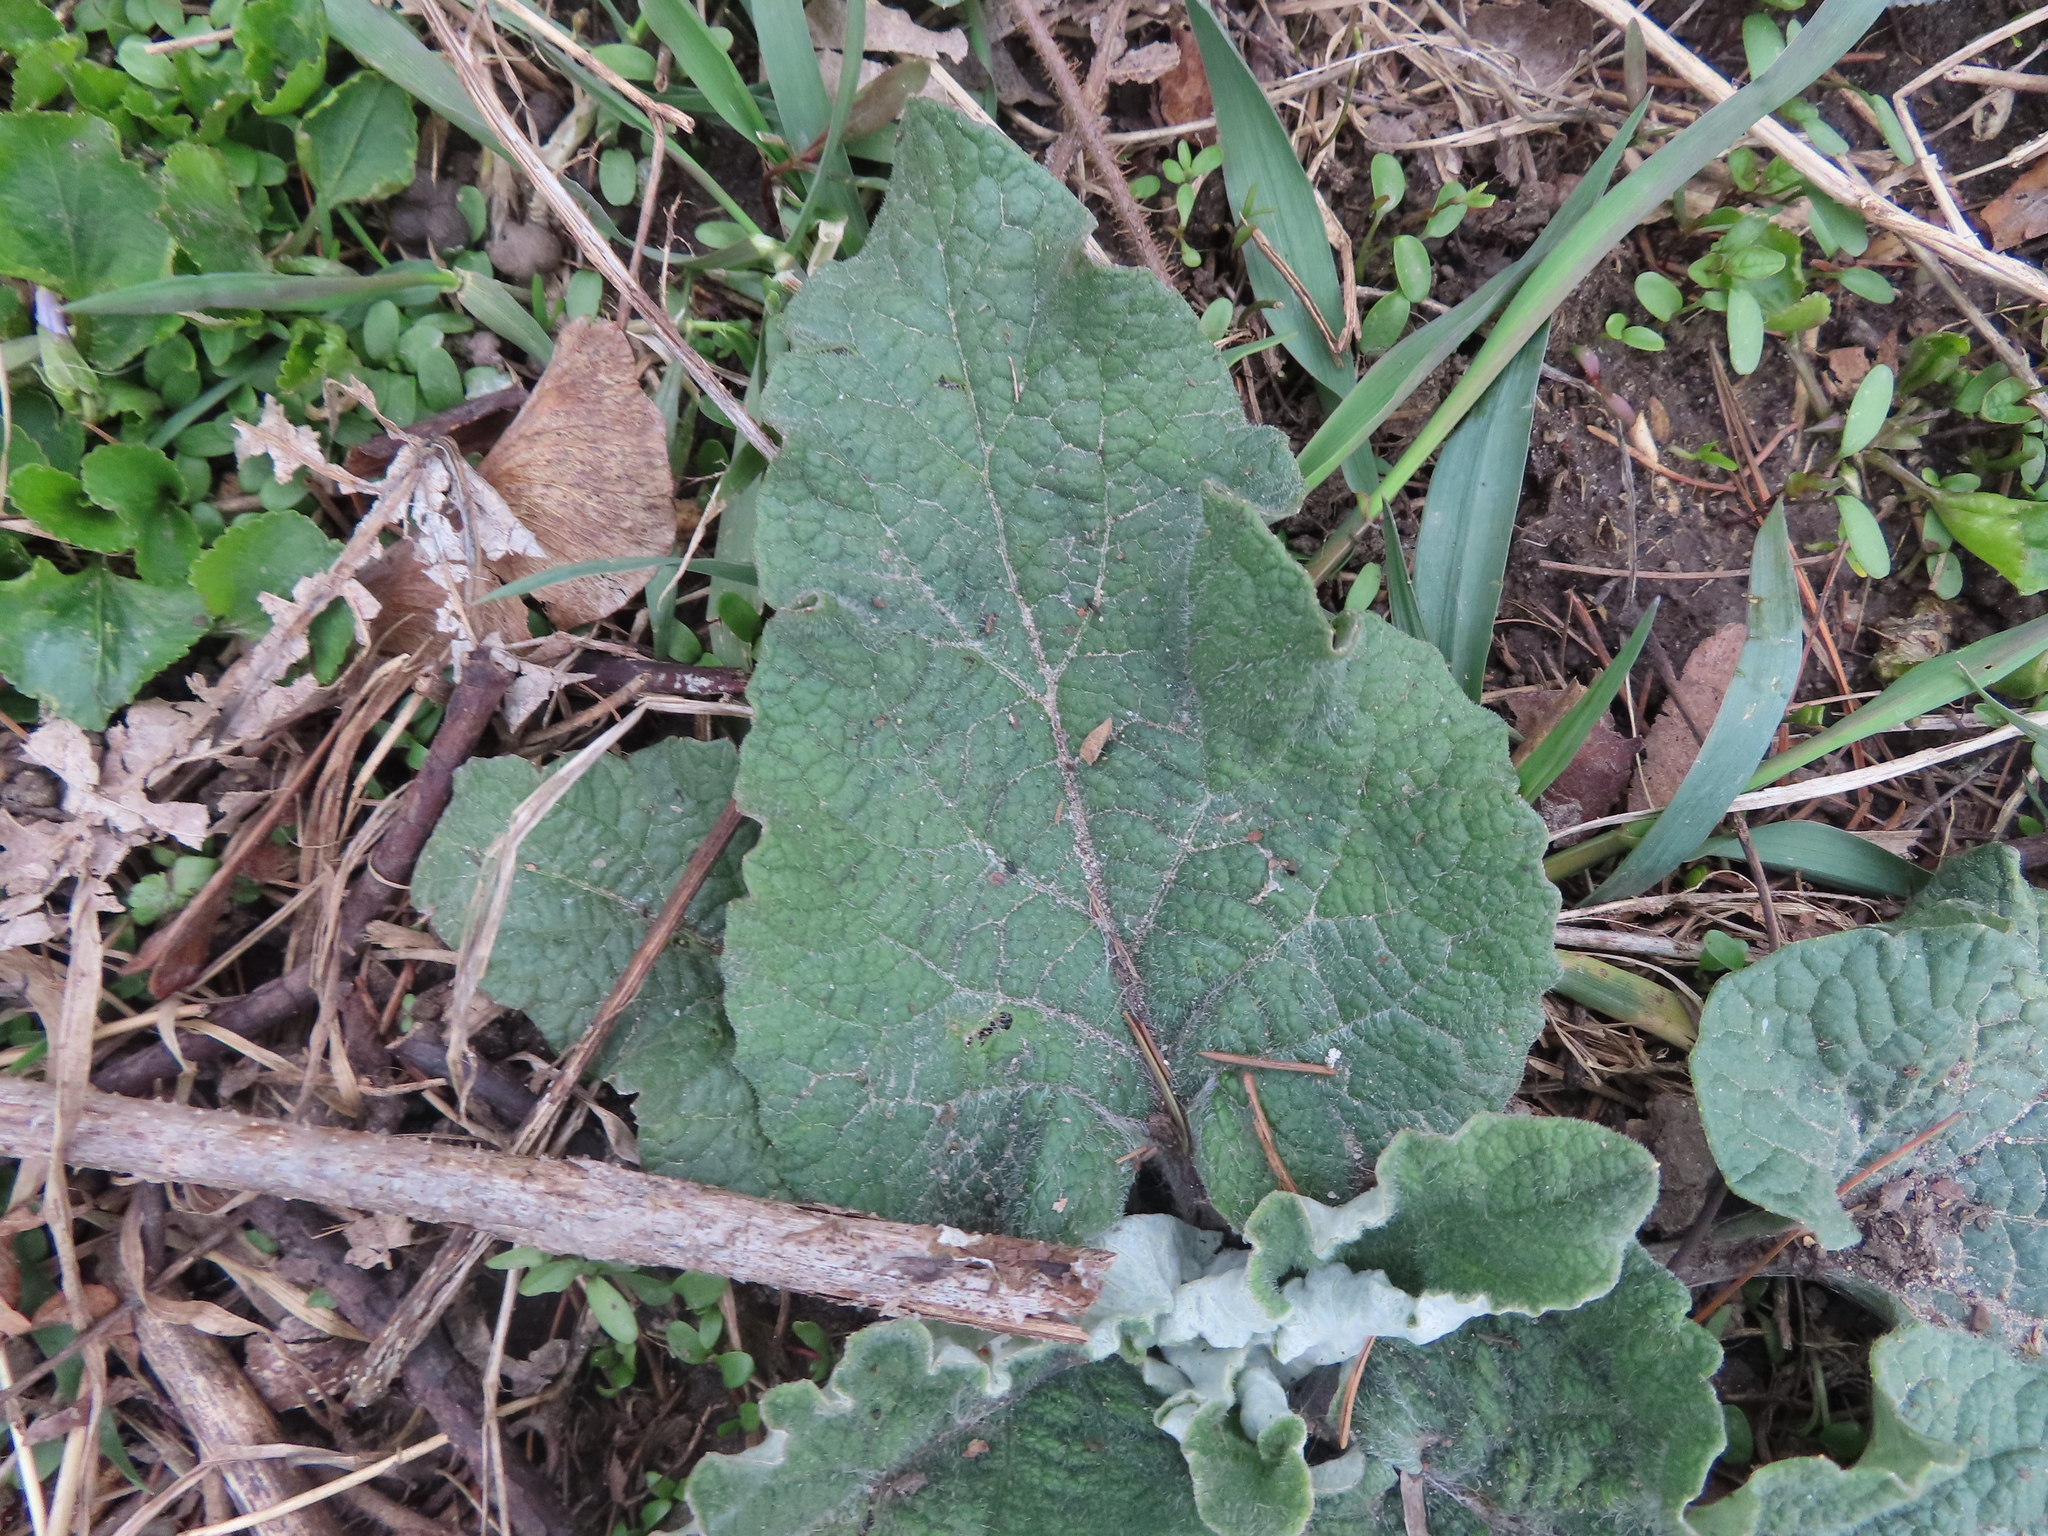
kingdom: Plantae
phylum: Tracheophyta
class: Magnoliopsida
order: Asterales
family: Asteraceae
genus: Arctium
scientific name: Arctium
